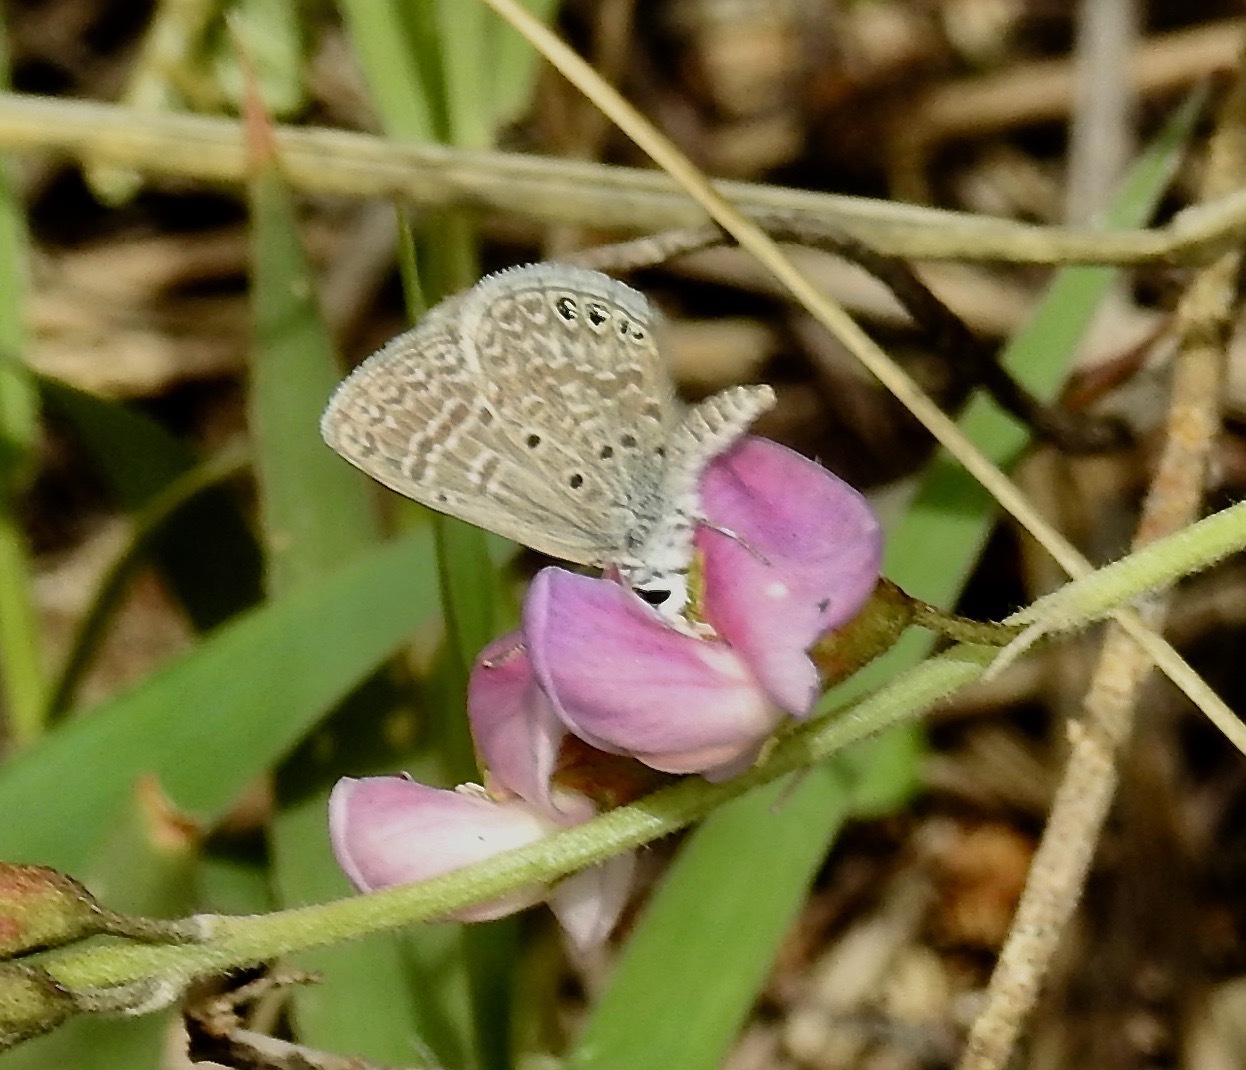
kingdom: Animalia
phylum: Arthropoda
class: Insecta
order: Lepidoptera
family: Lycaenidae
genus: Hemiargus
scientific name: Hemiargus ramon
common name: Ramon blue
